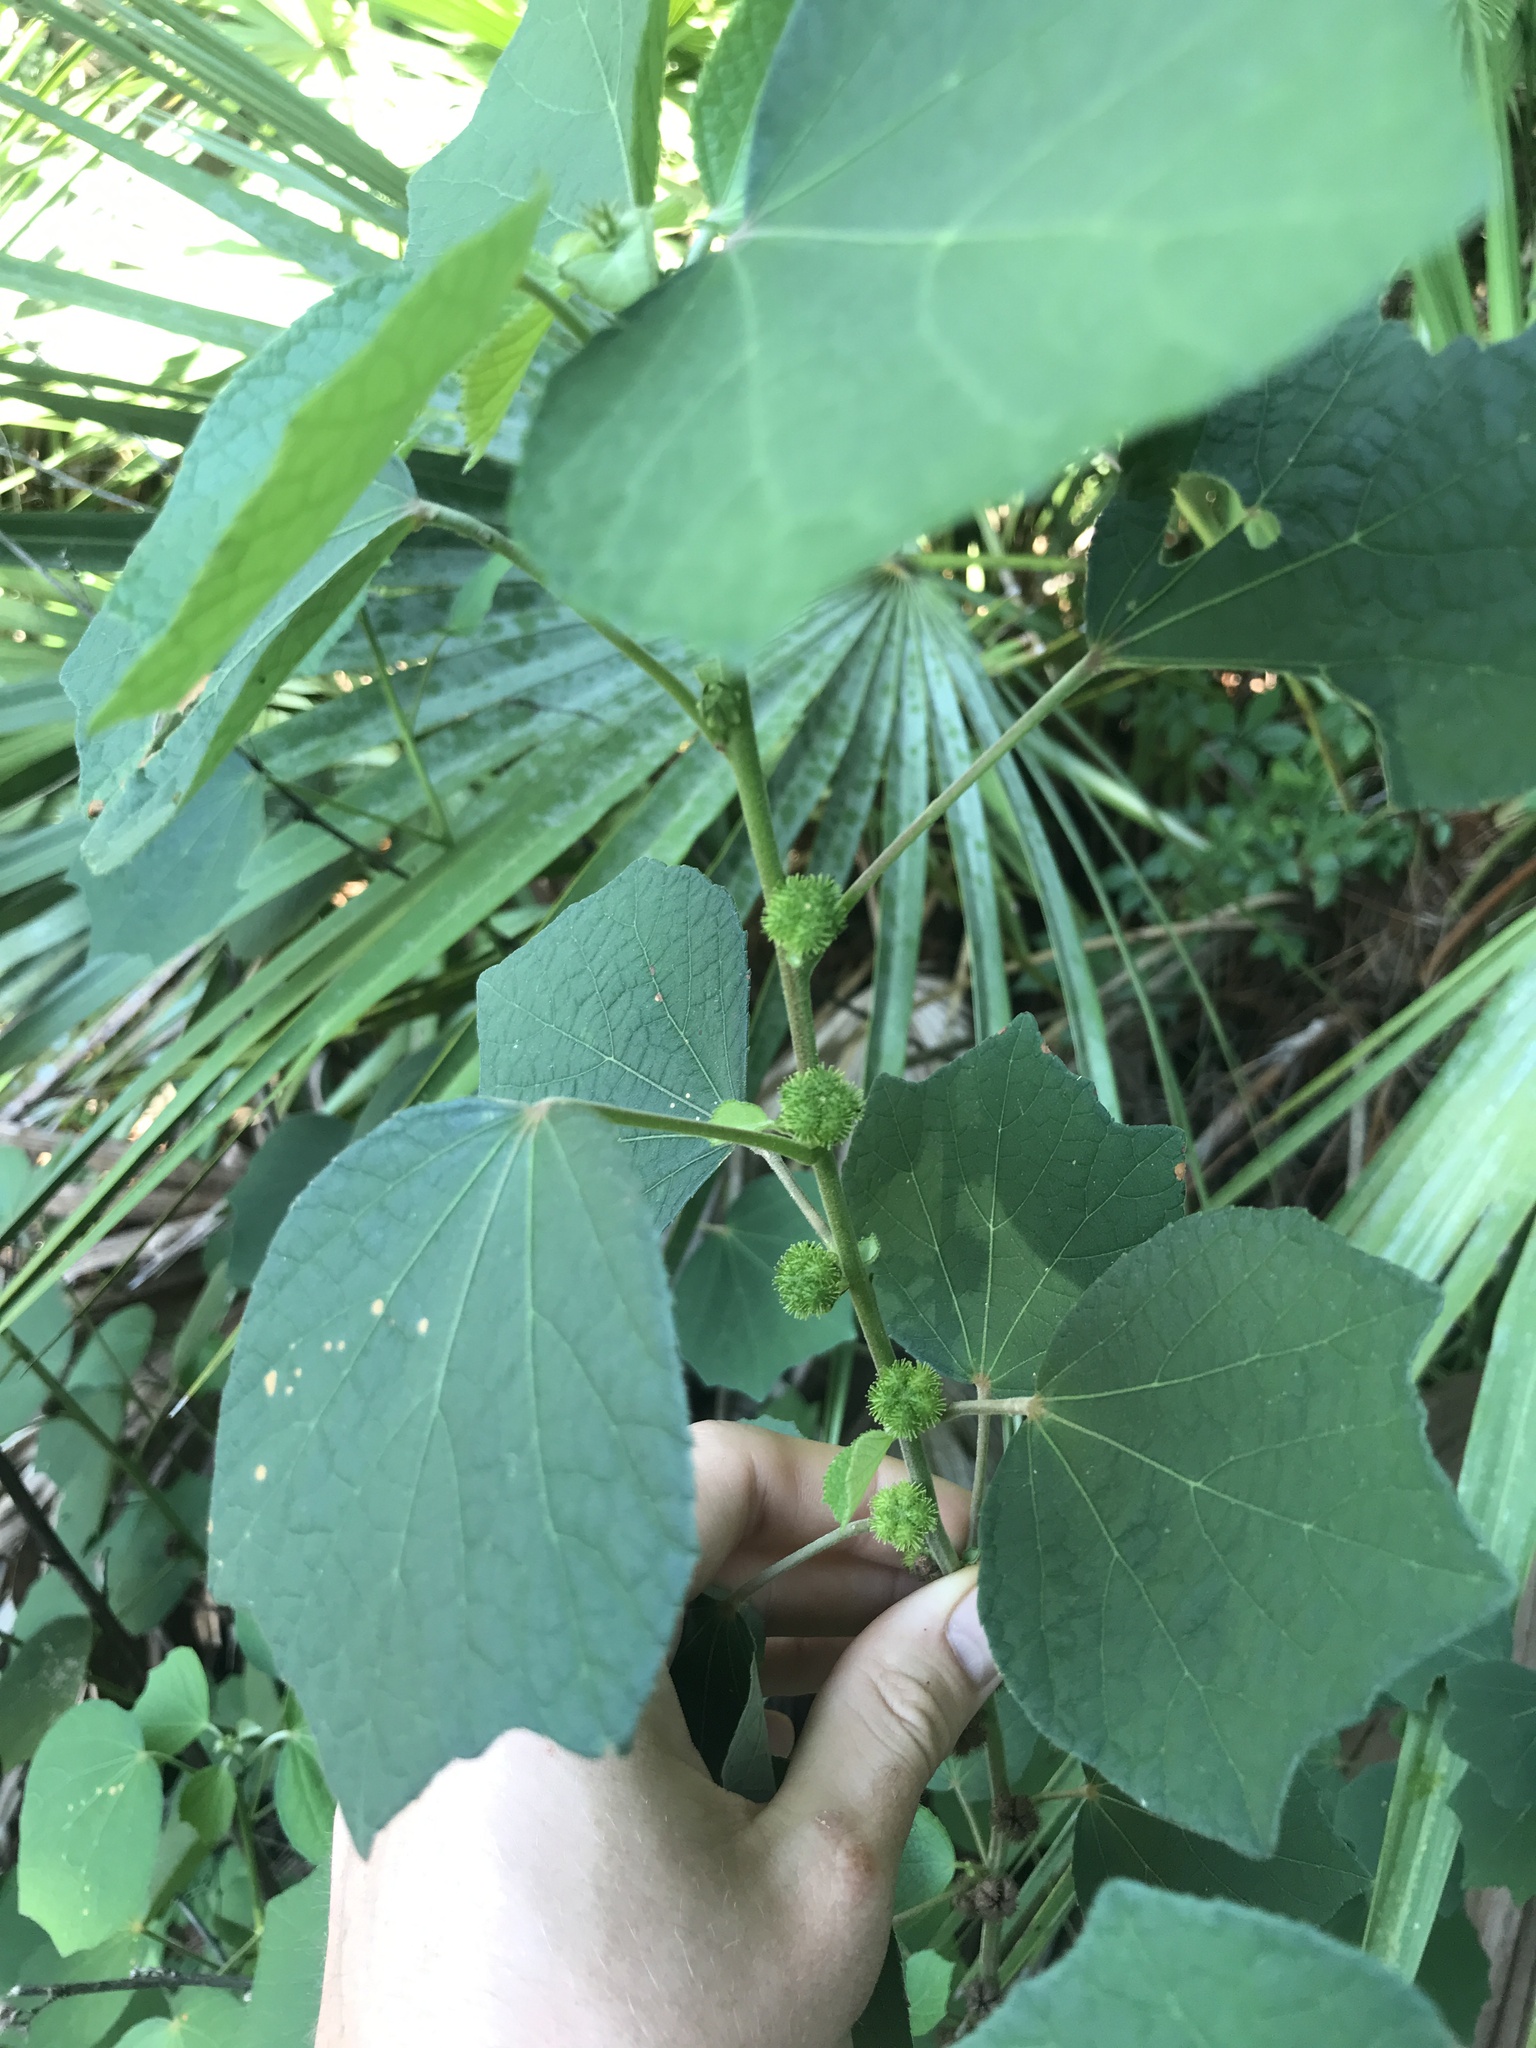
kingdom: Plantae
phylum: Tracheophyta
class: Magnoliopsida
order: Malvales
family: Malvaceae
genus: Urena
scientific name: Urena lobata
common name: Caesarweed
